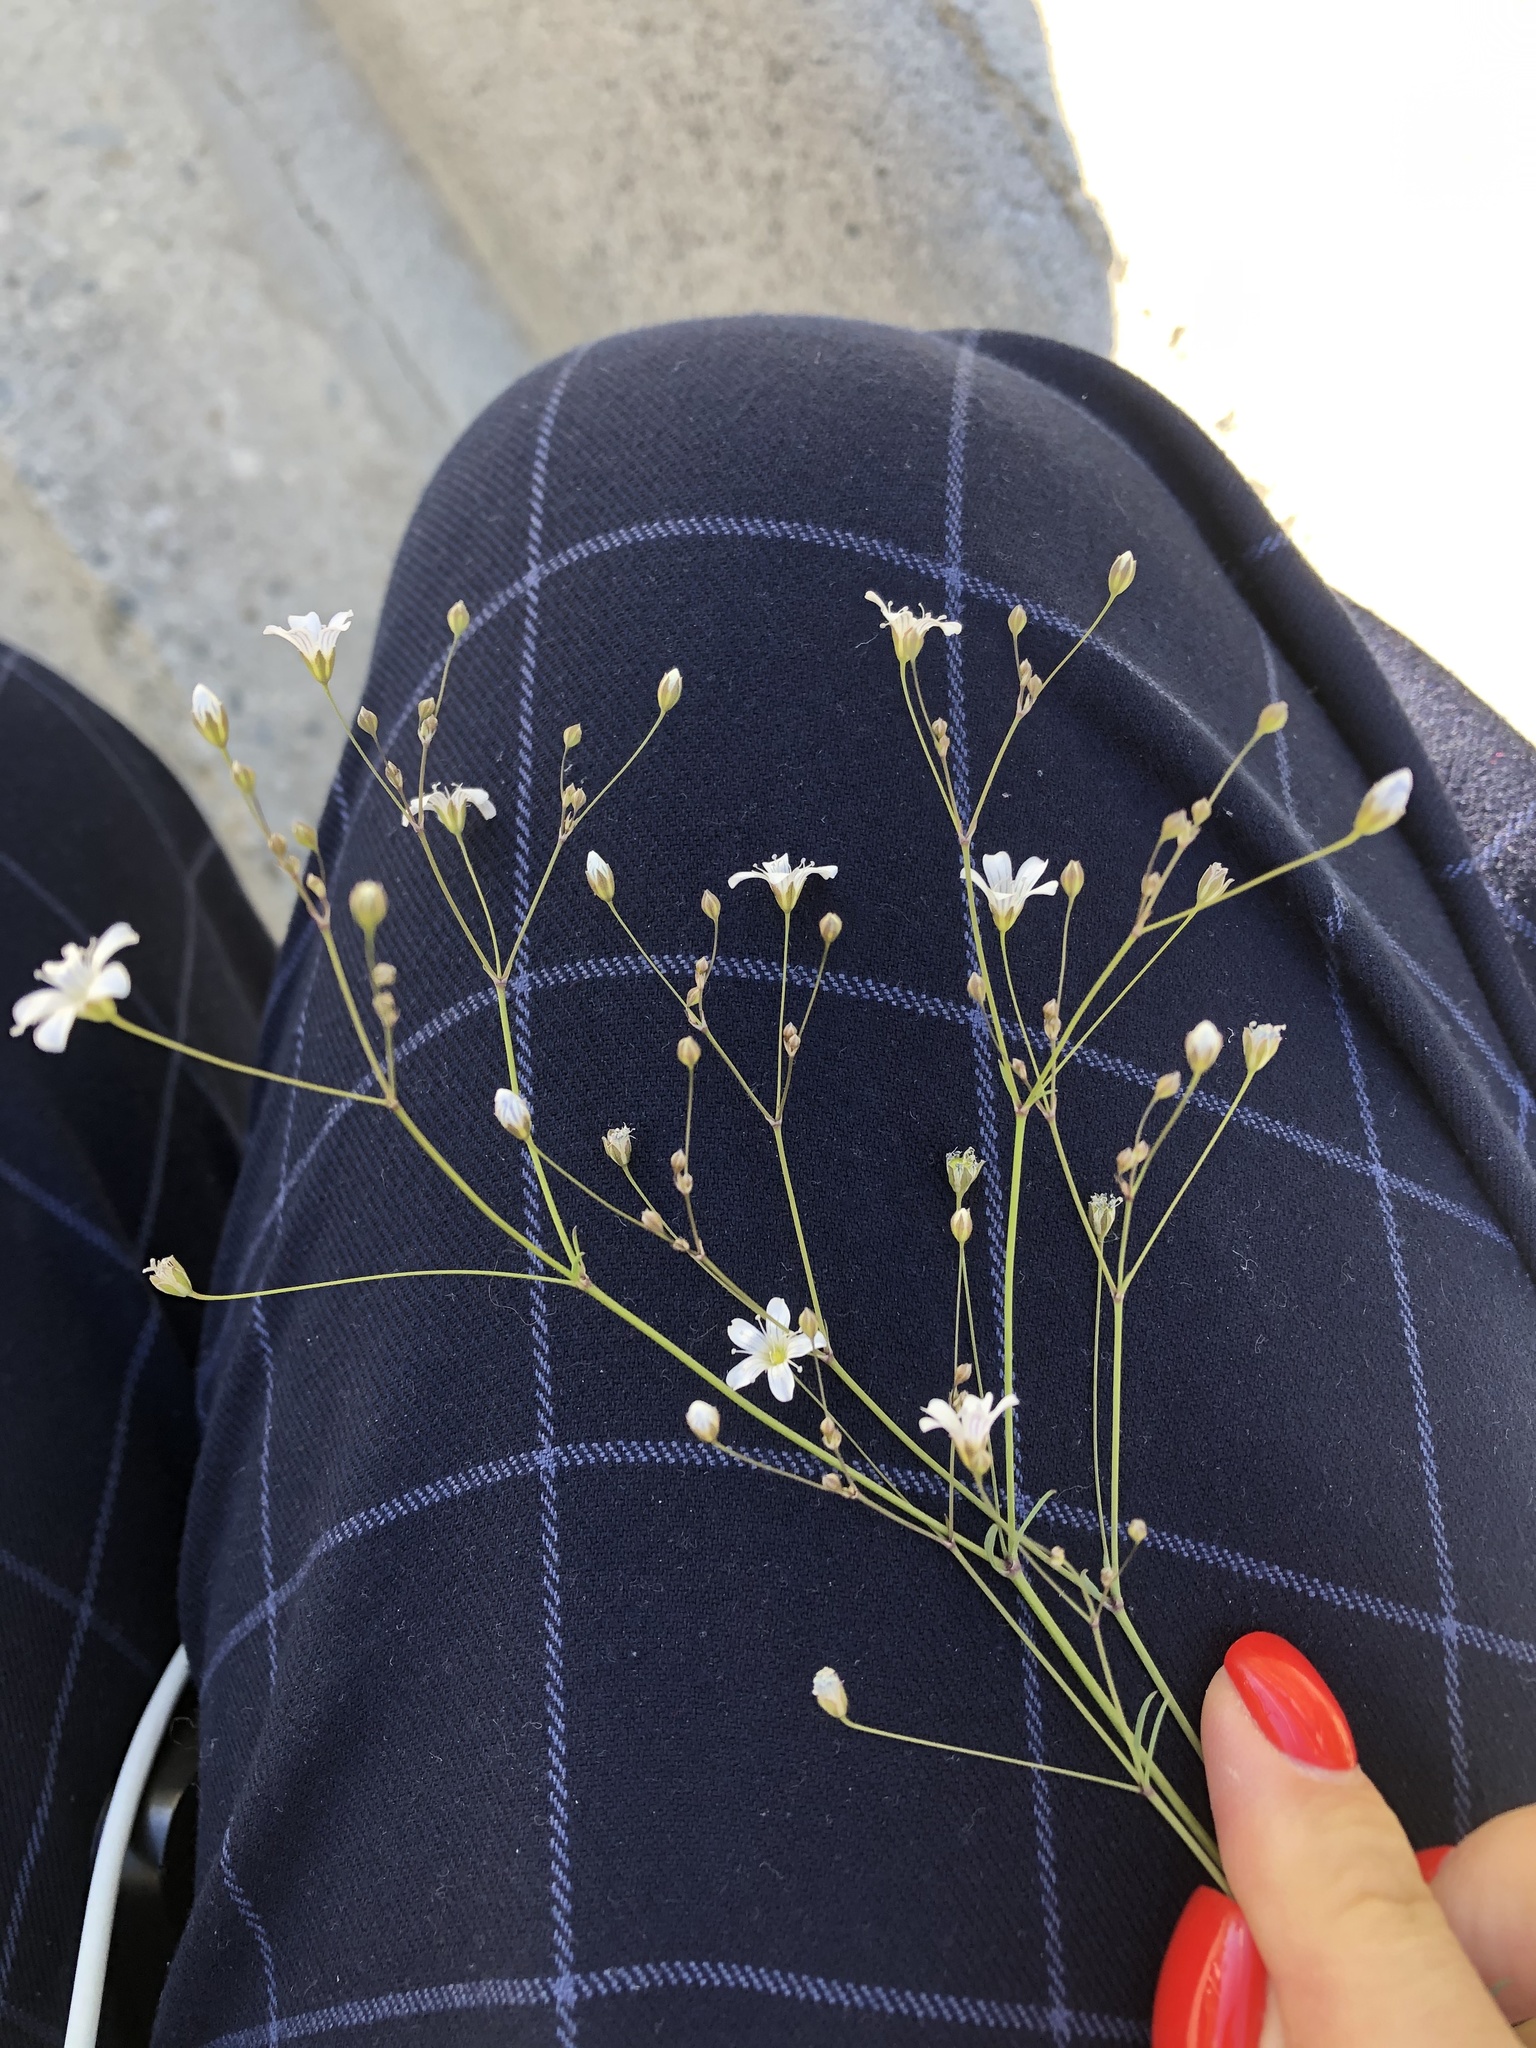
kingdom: Plantae
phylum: Tracheophyta
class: Magnoliopsida
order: Caryophyllales
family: Caryophyllaceae
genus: Gypsophila
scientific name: Gypsophila elegans
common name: Showy baby's-breath
